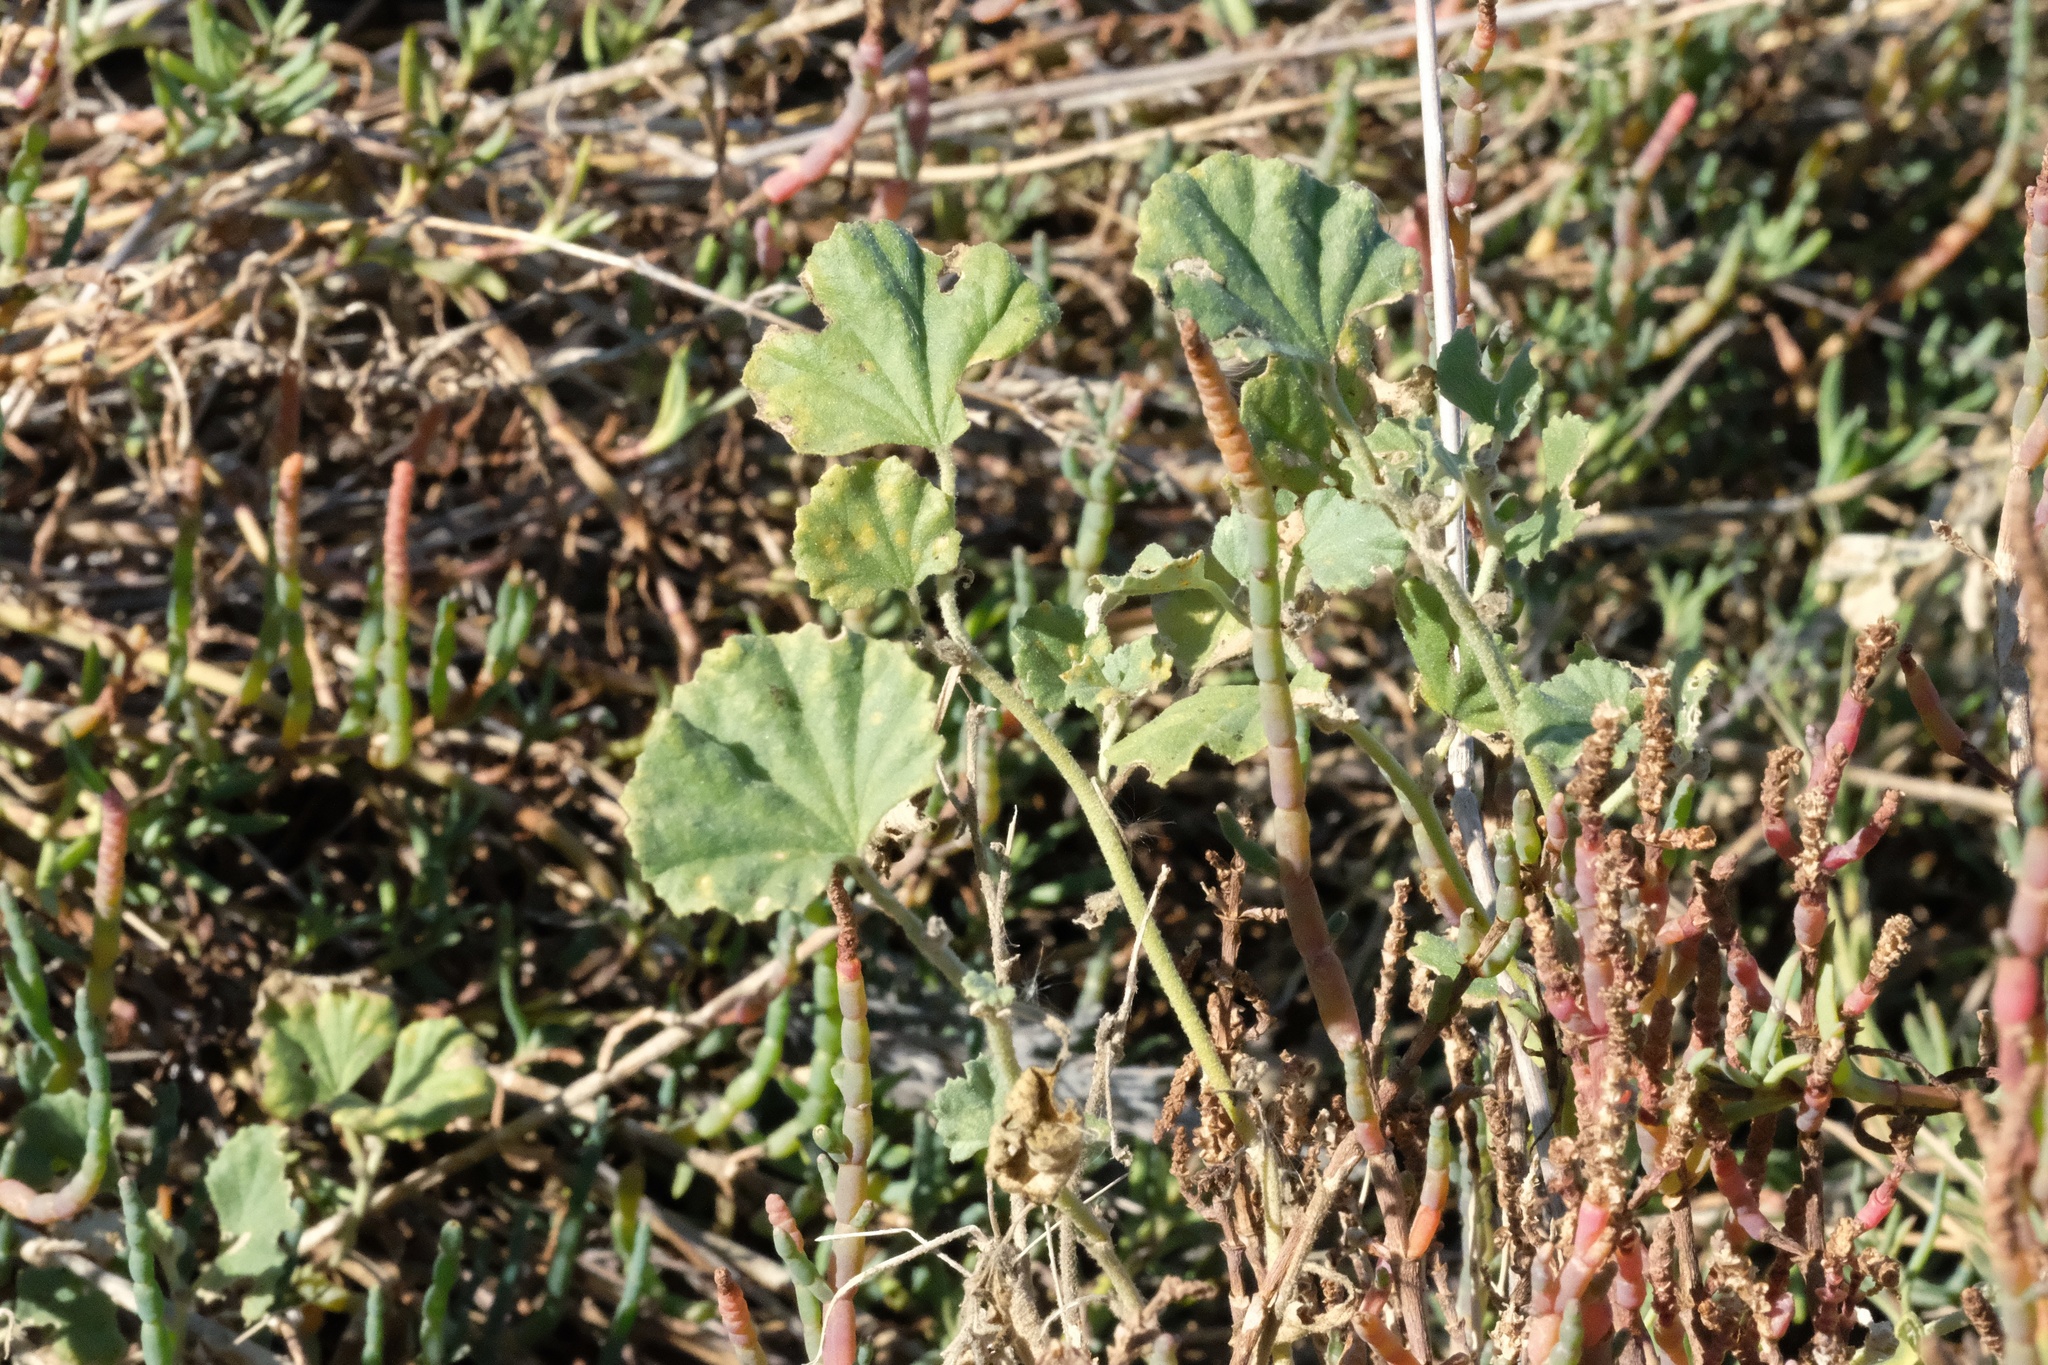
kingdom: Plantae
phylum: Tracheophyta
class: Magnoliopsida
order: Malvales
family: Malvaceae
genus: Malvella
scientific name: Malvella leprosa
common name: Alkali-mallow
